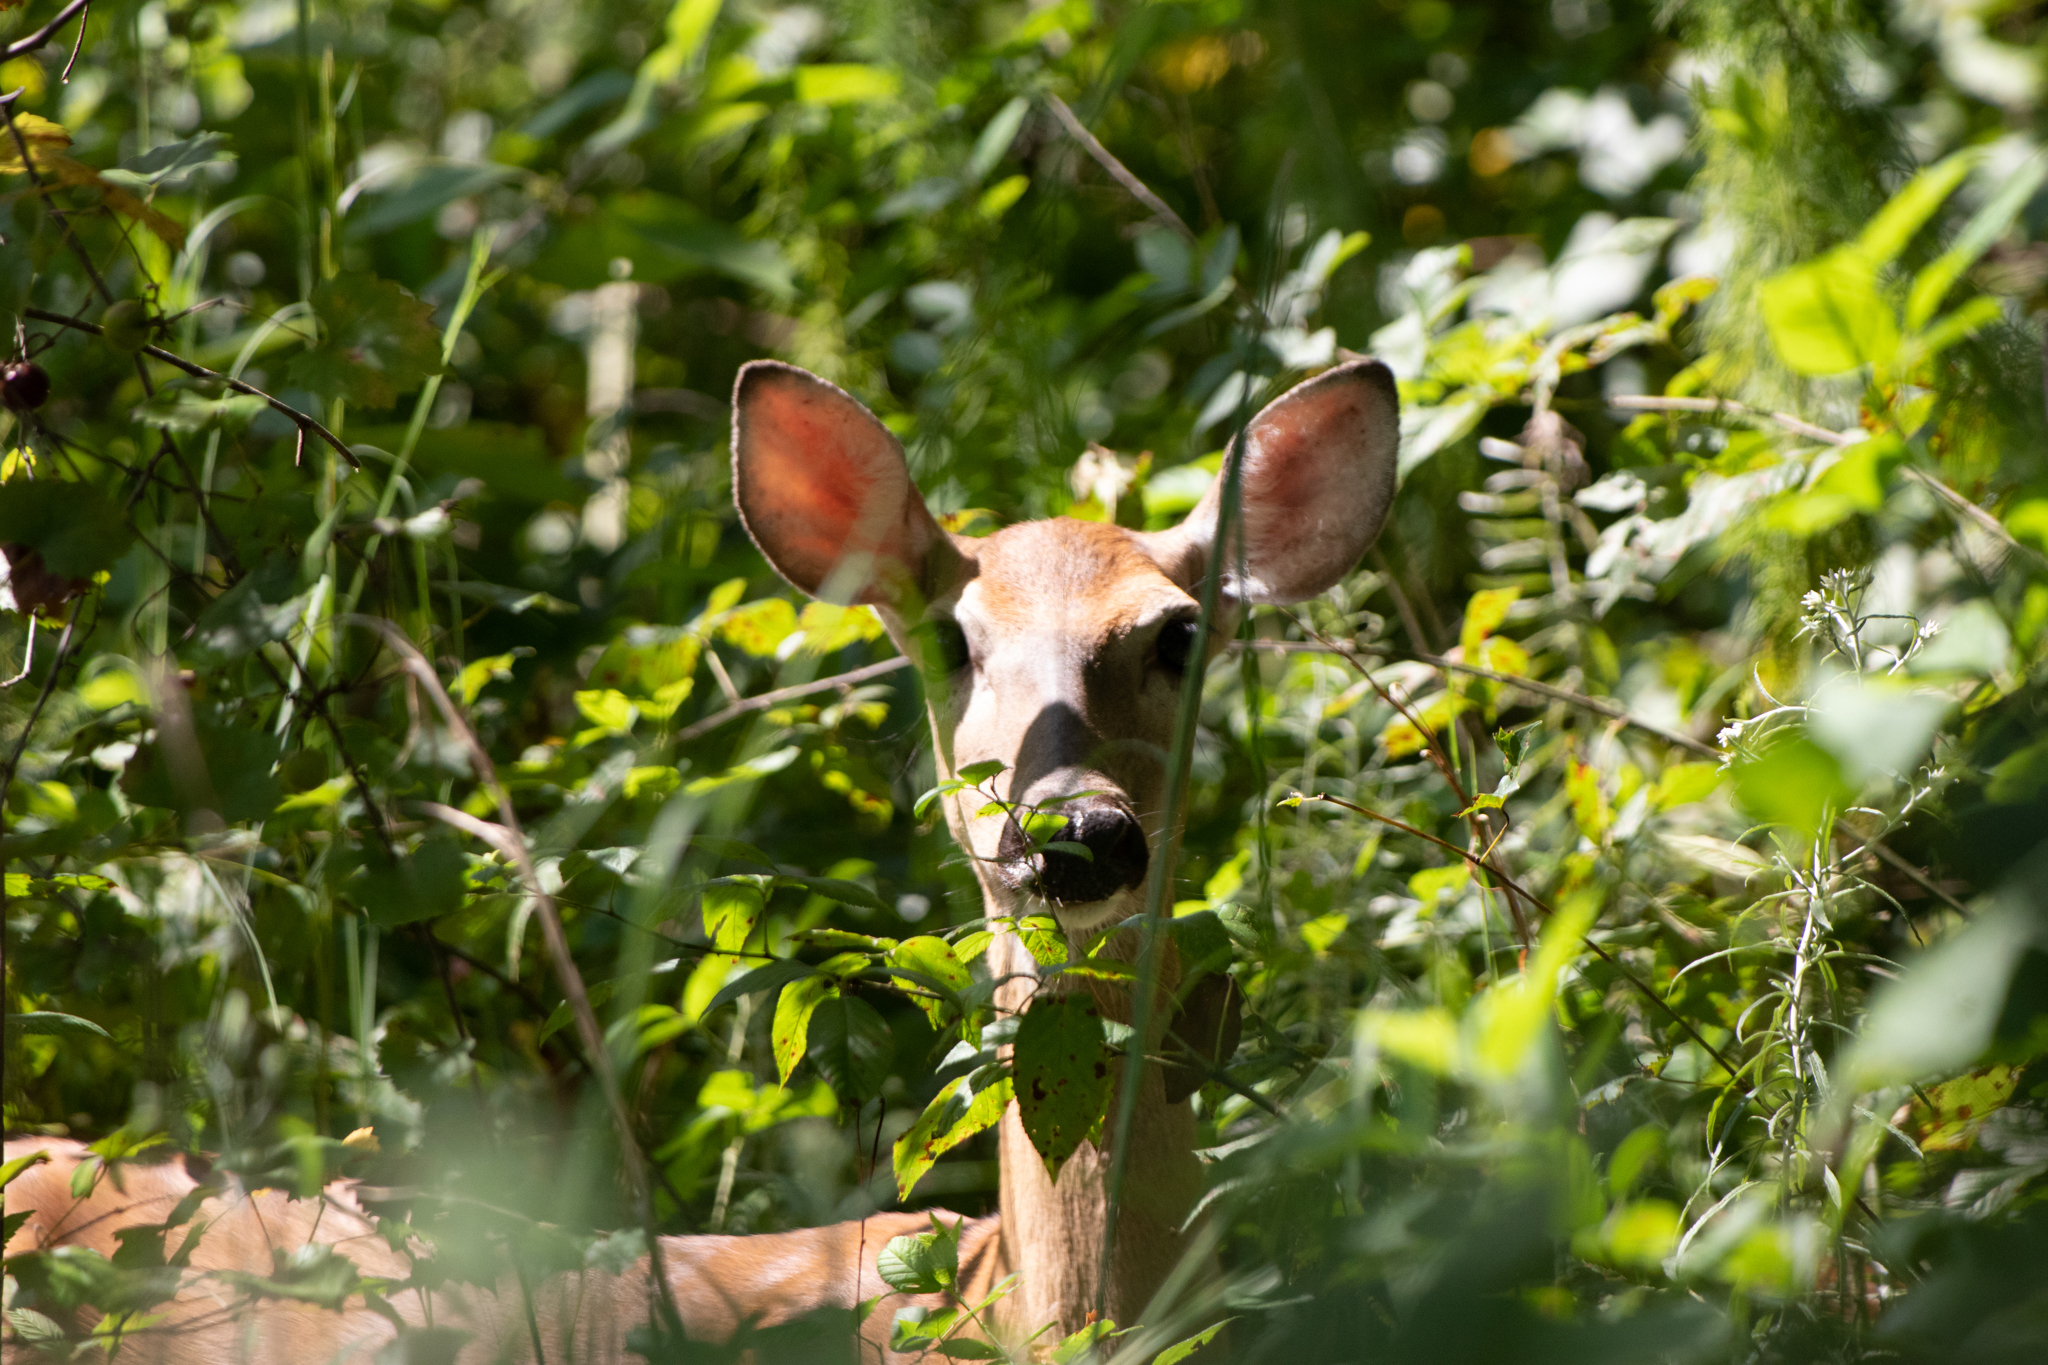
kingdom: Animalia
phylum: Chordata
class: Mammalia
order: Artiodactyla
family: Cervidae
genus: Odocoileus
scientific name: Odocoileus virginianus
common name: White-tailed deer
